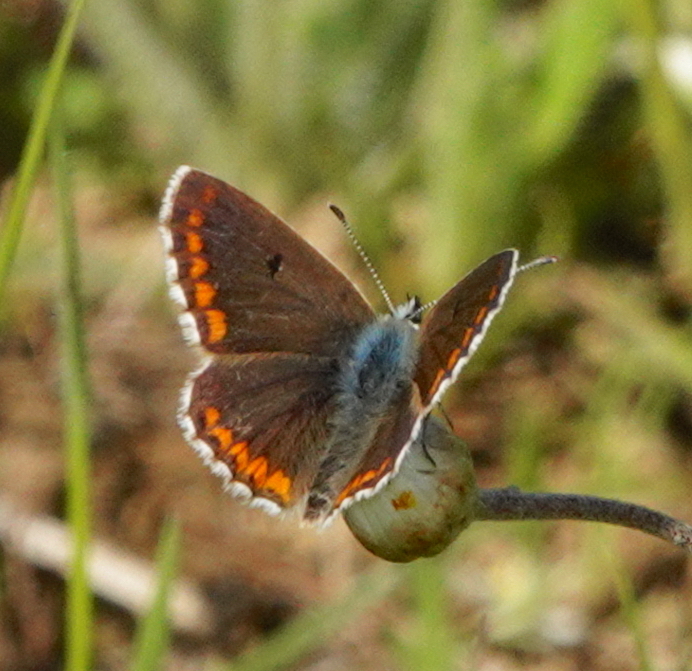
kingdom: Animalia
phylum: Arthropoda
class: Insecta
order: Lepidoptera
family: Lycaenidae
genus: Aricia
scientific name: Aricia cramera
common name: Eschscholtz´s brown  argus
